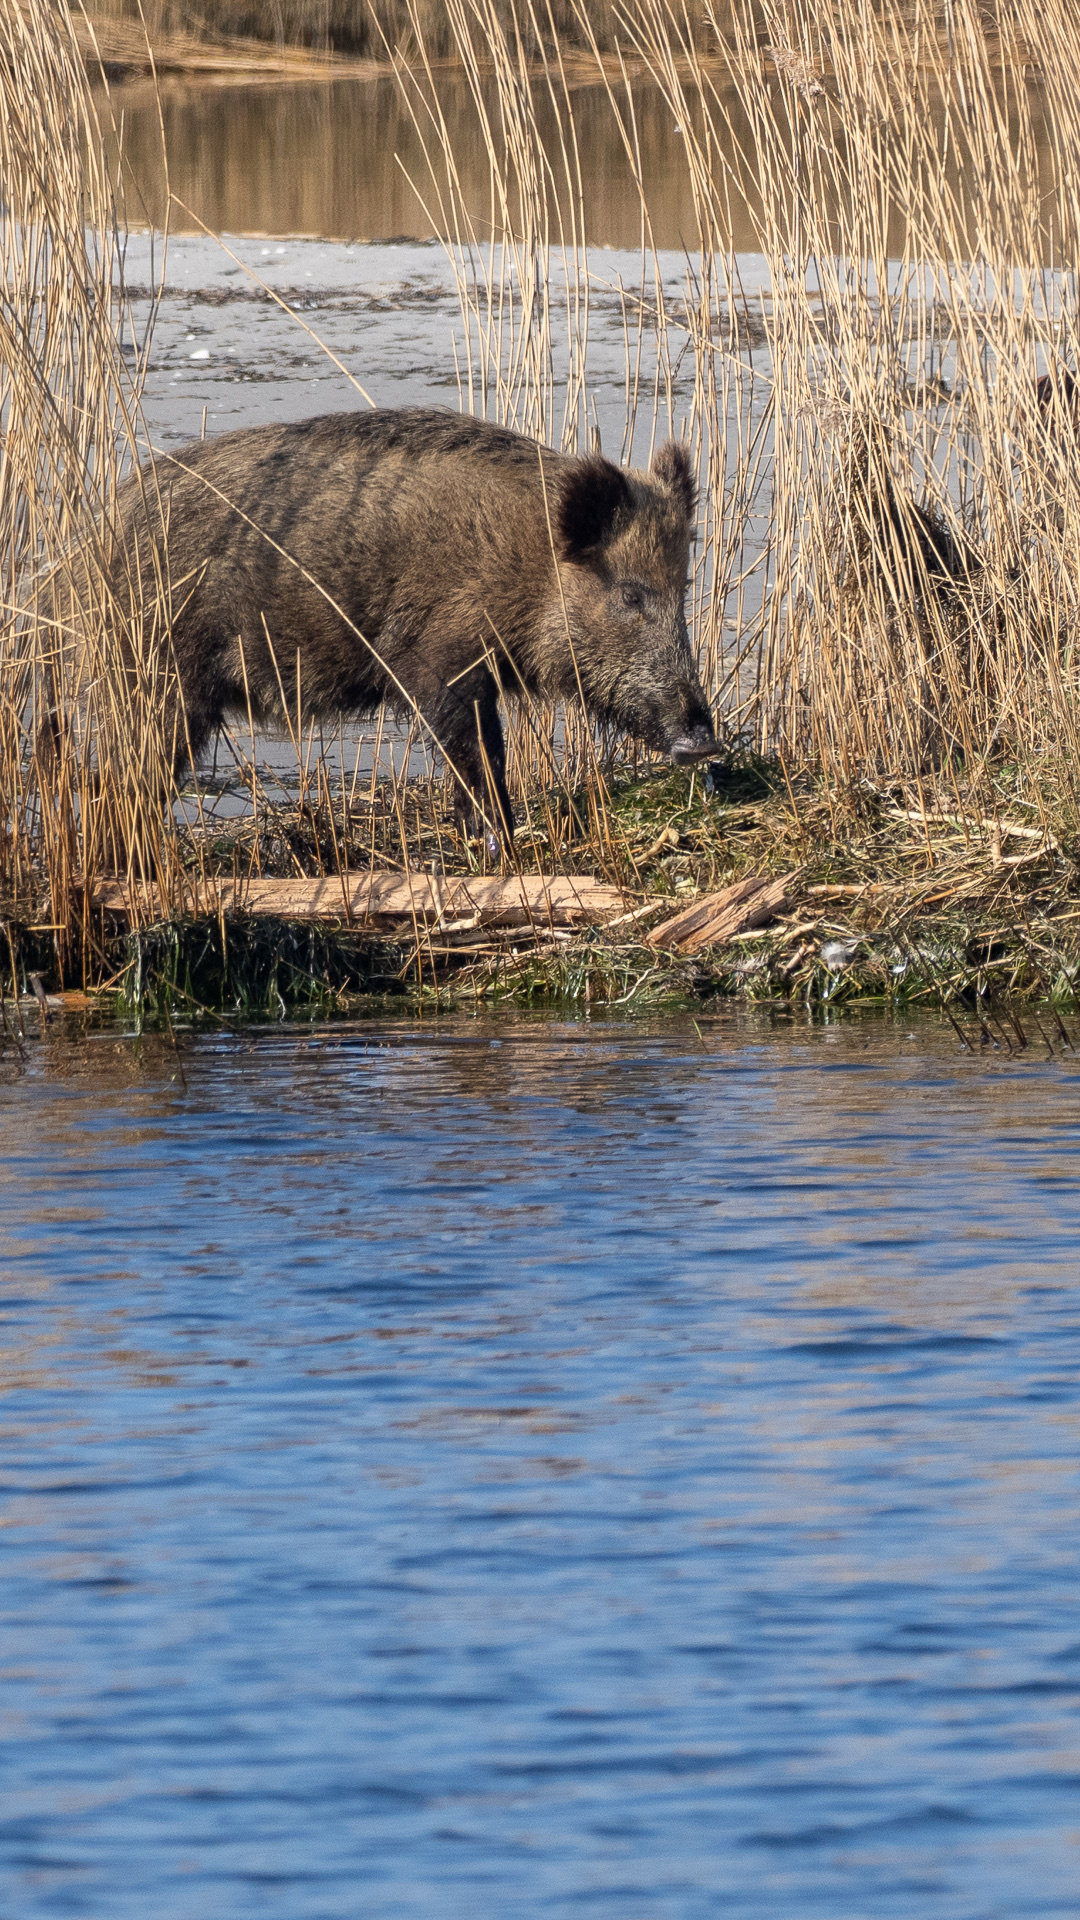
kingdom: Animalia
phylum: Chordata
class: Mammalia
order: Artiodactyla
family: Suidae
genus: Sus
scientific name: Sus scrofa
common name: Wild boar
